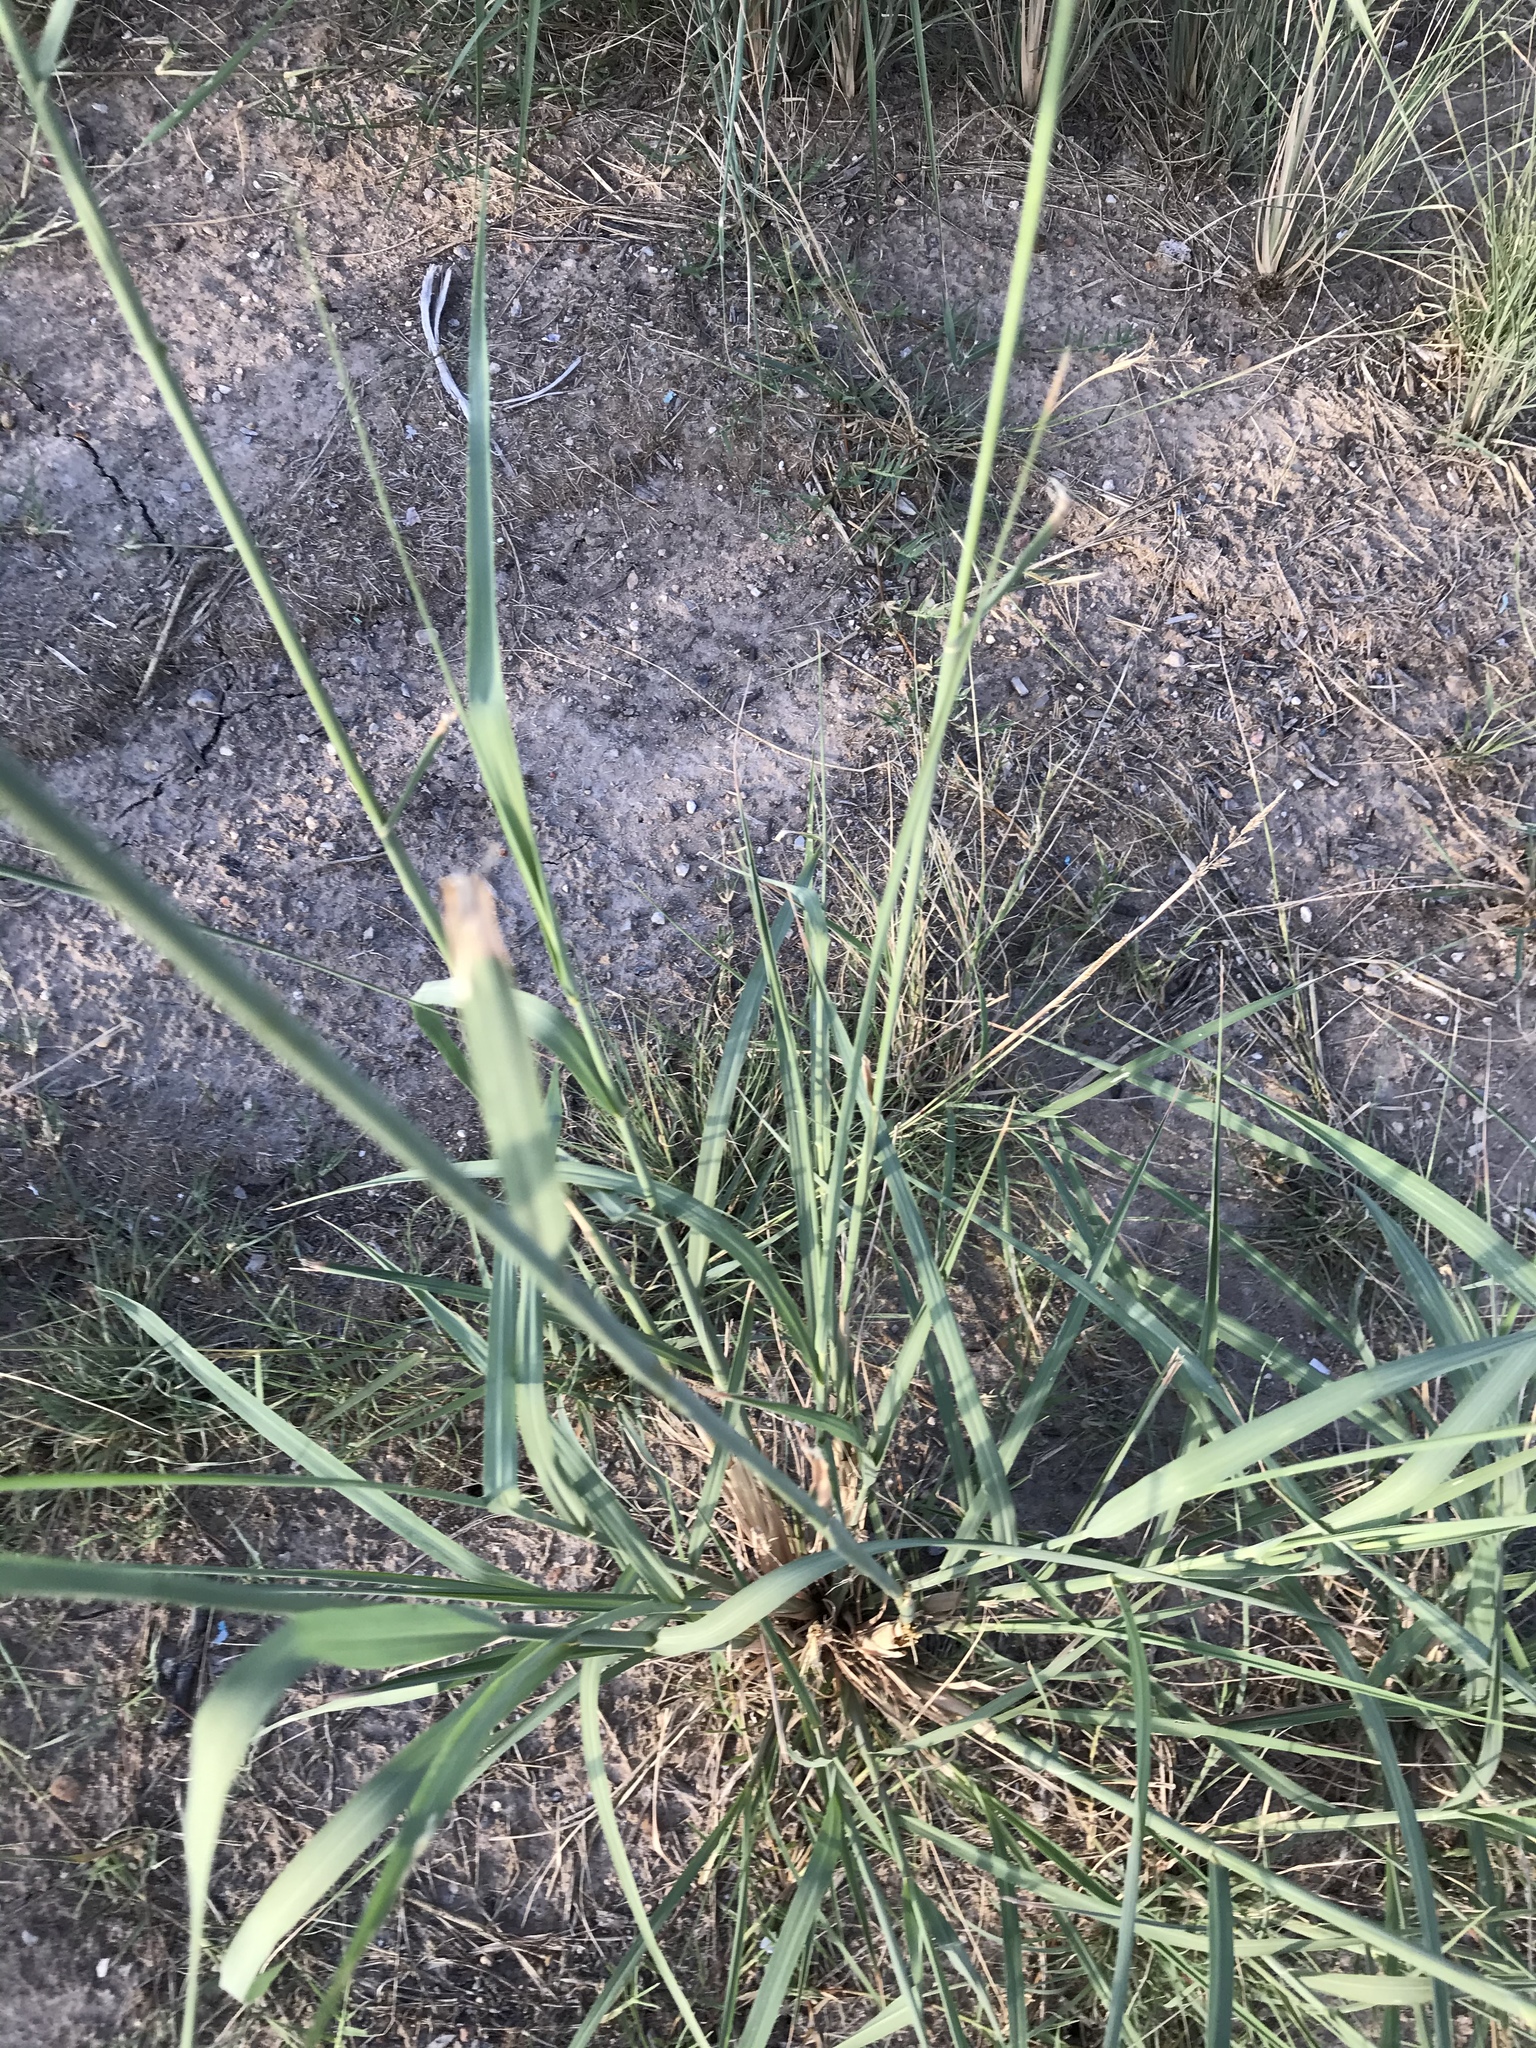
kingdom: Plantae
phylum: Tracheophyta
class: Liliopsida
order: Poales
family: Poaceae
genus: Disakisperma
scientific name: Disakisperma dubium
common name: Green sprangletop
